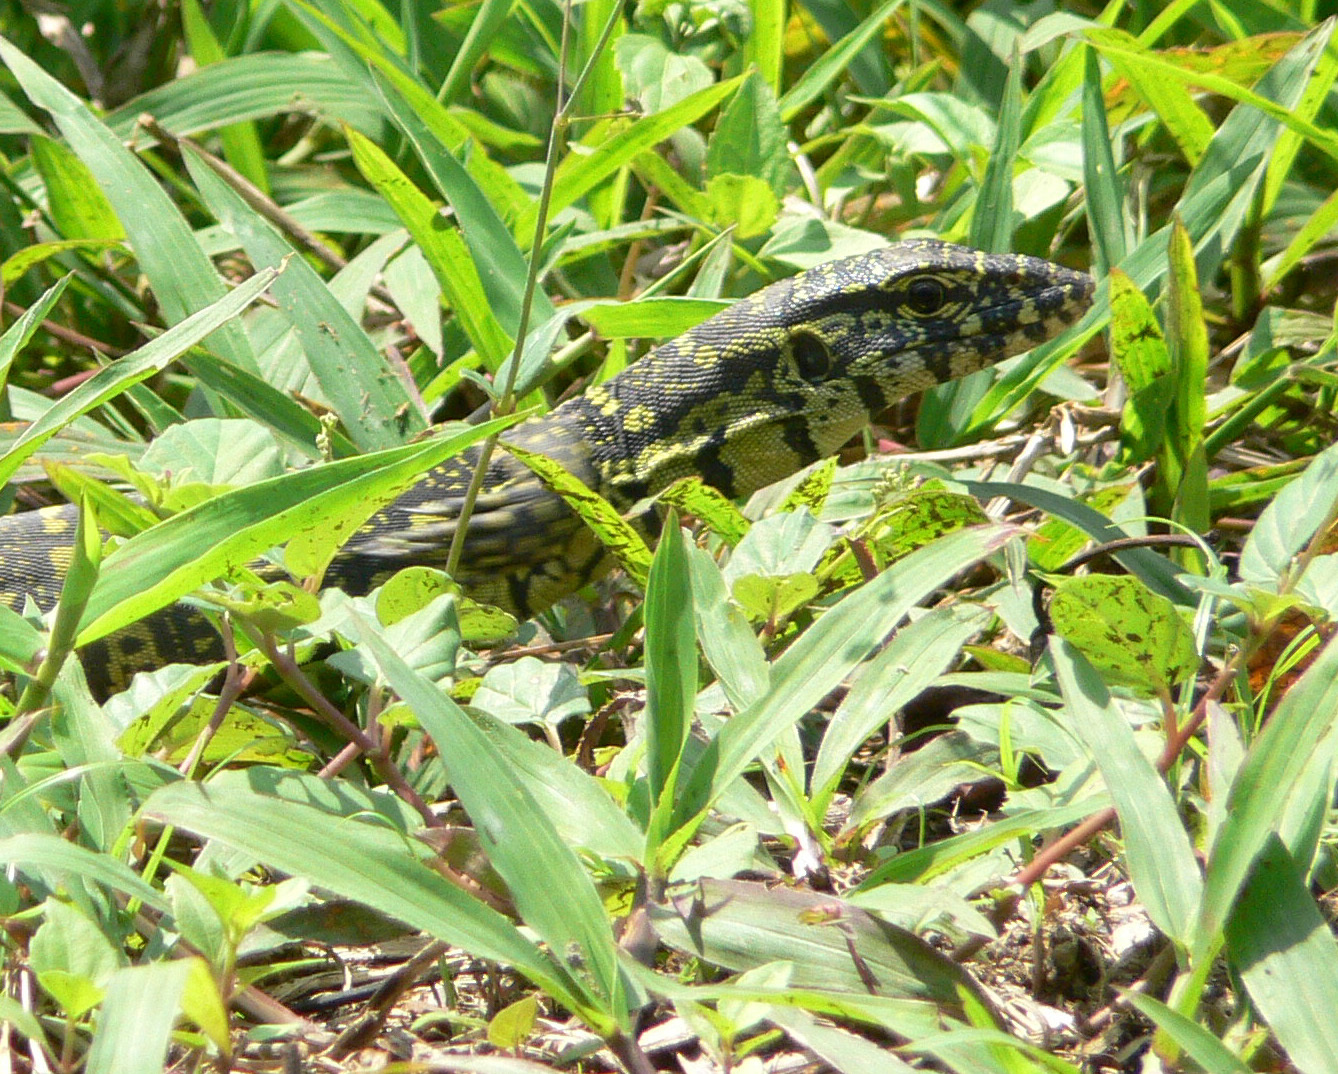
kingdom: Animalia
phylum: Chordata
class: Squamata
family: Varanidae
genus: Varanus
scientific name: Varanus niloticus
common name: Nile monitor
